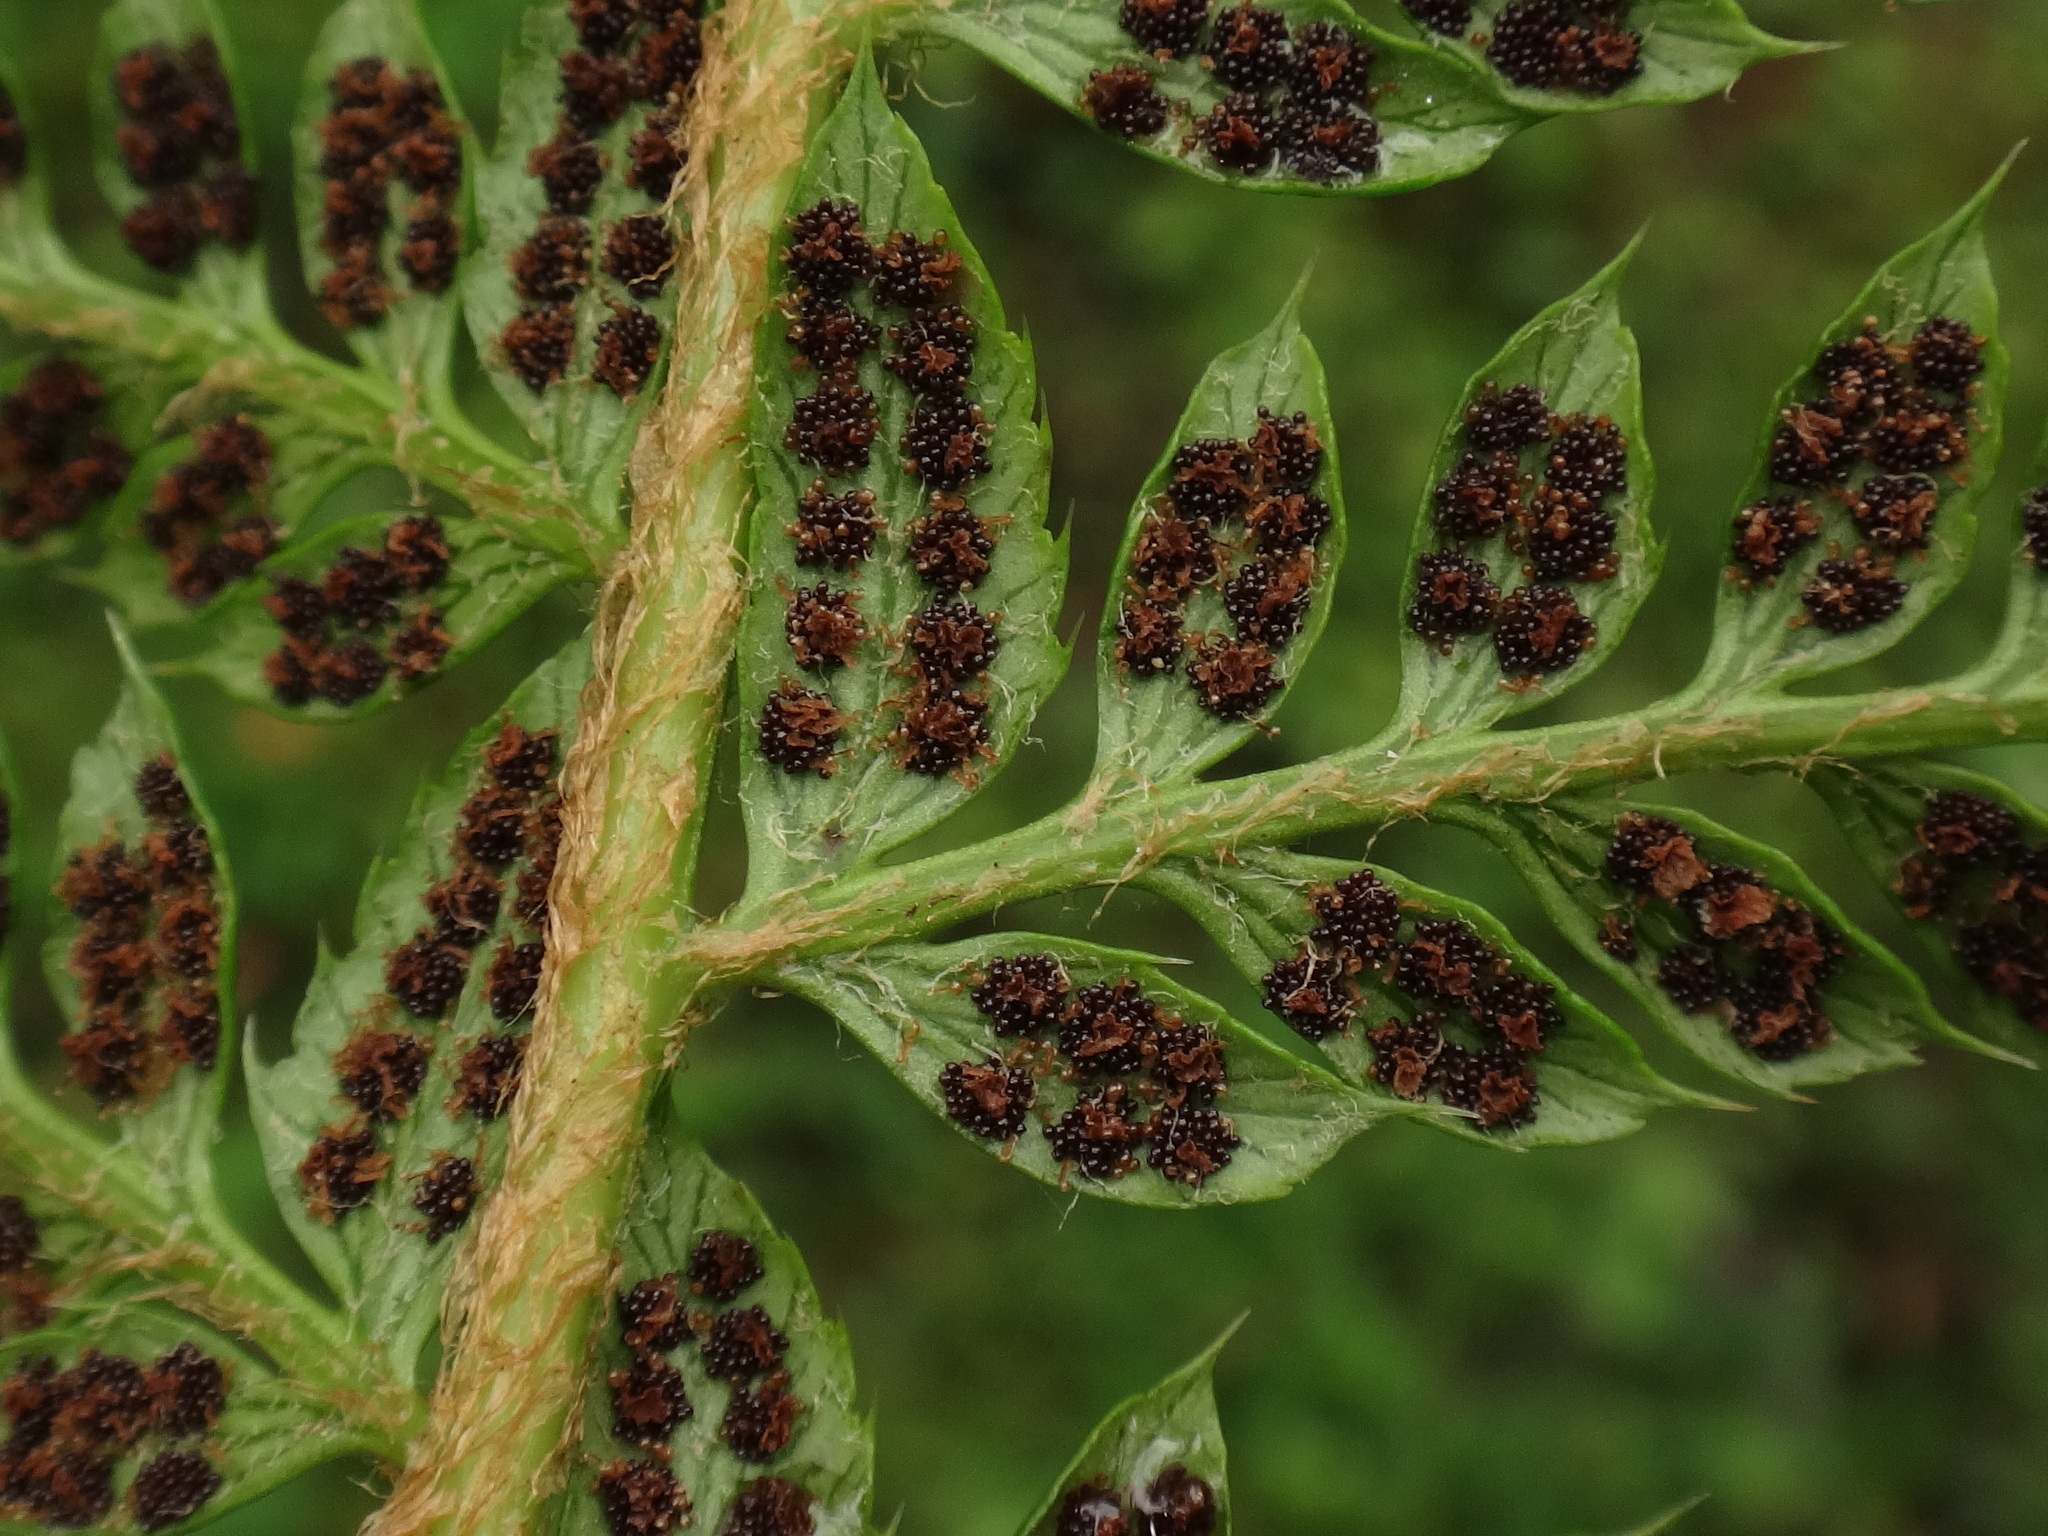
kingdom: Plantae
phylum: Tracheophyta
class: Polypodiopsida
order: Polypodiales
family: Dryopteridaceae
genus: Polystichum
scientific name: Polystichum aculeatum
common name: Hard shield-fern
